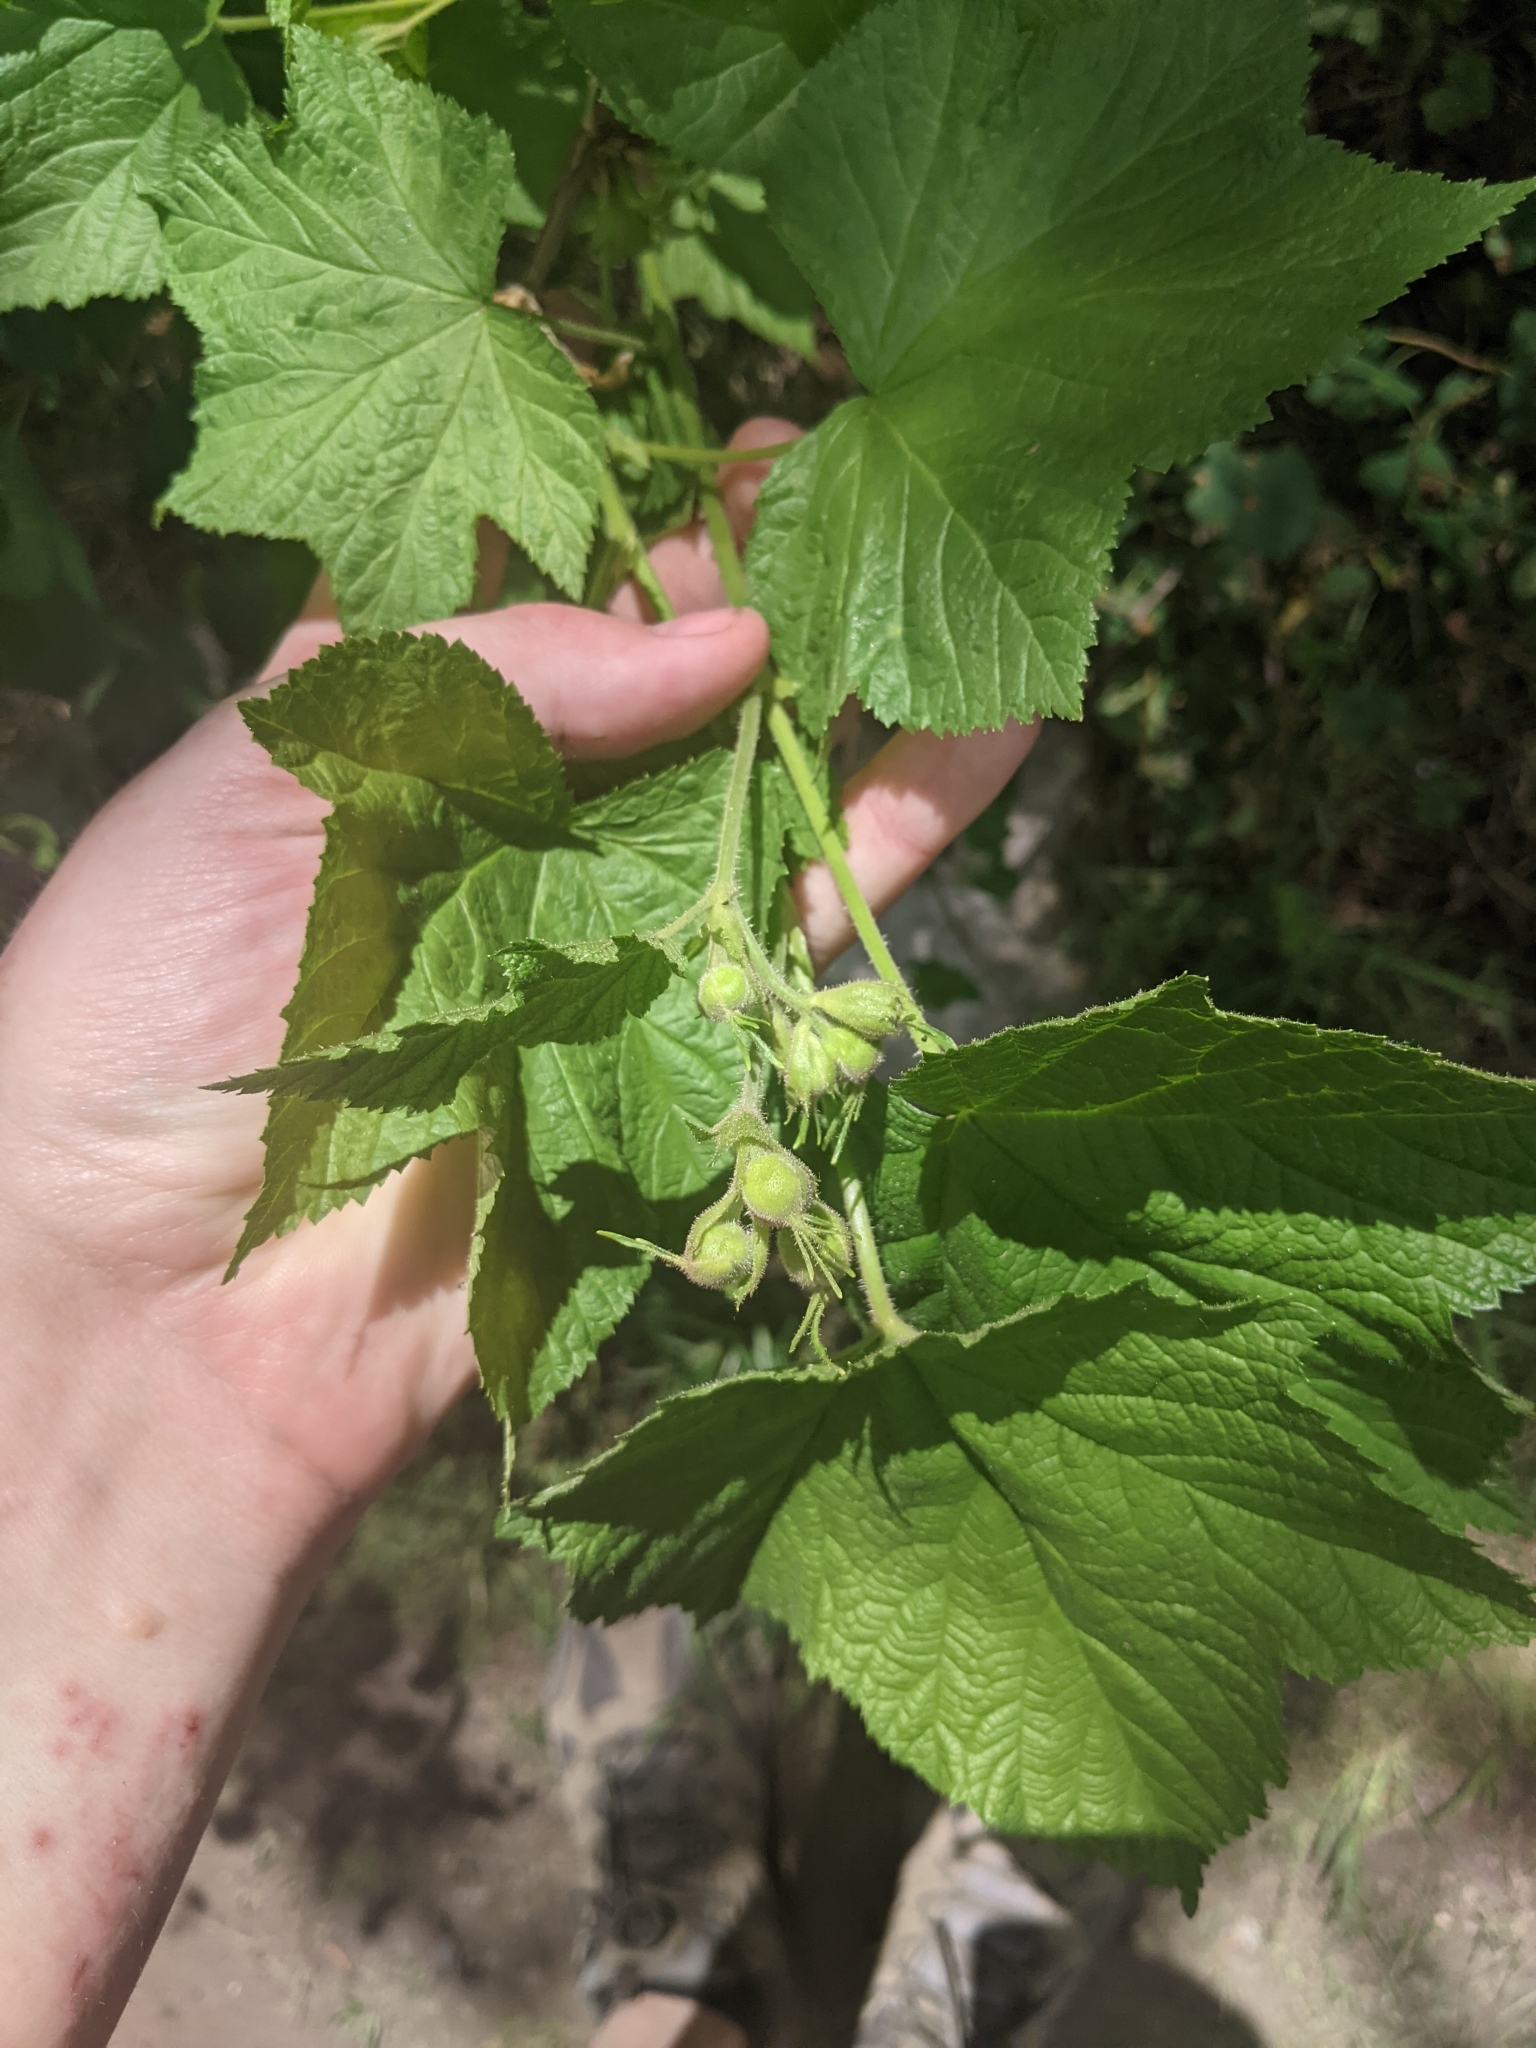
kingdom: Plantae
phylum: Tracheophyta
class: Magnoliopsida
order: Rosales
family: Rosaceae
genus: Rubus
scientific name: Rubus parviflorus
